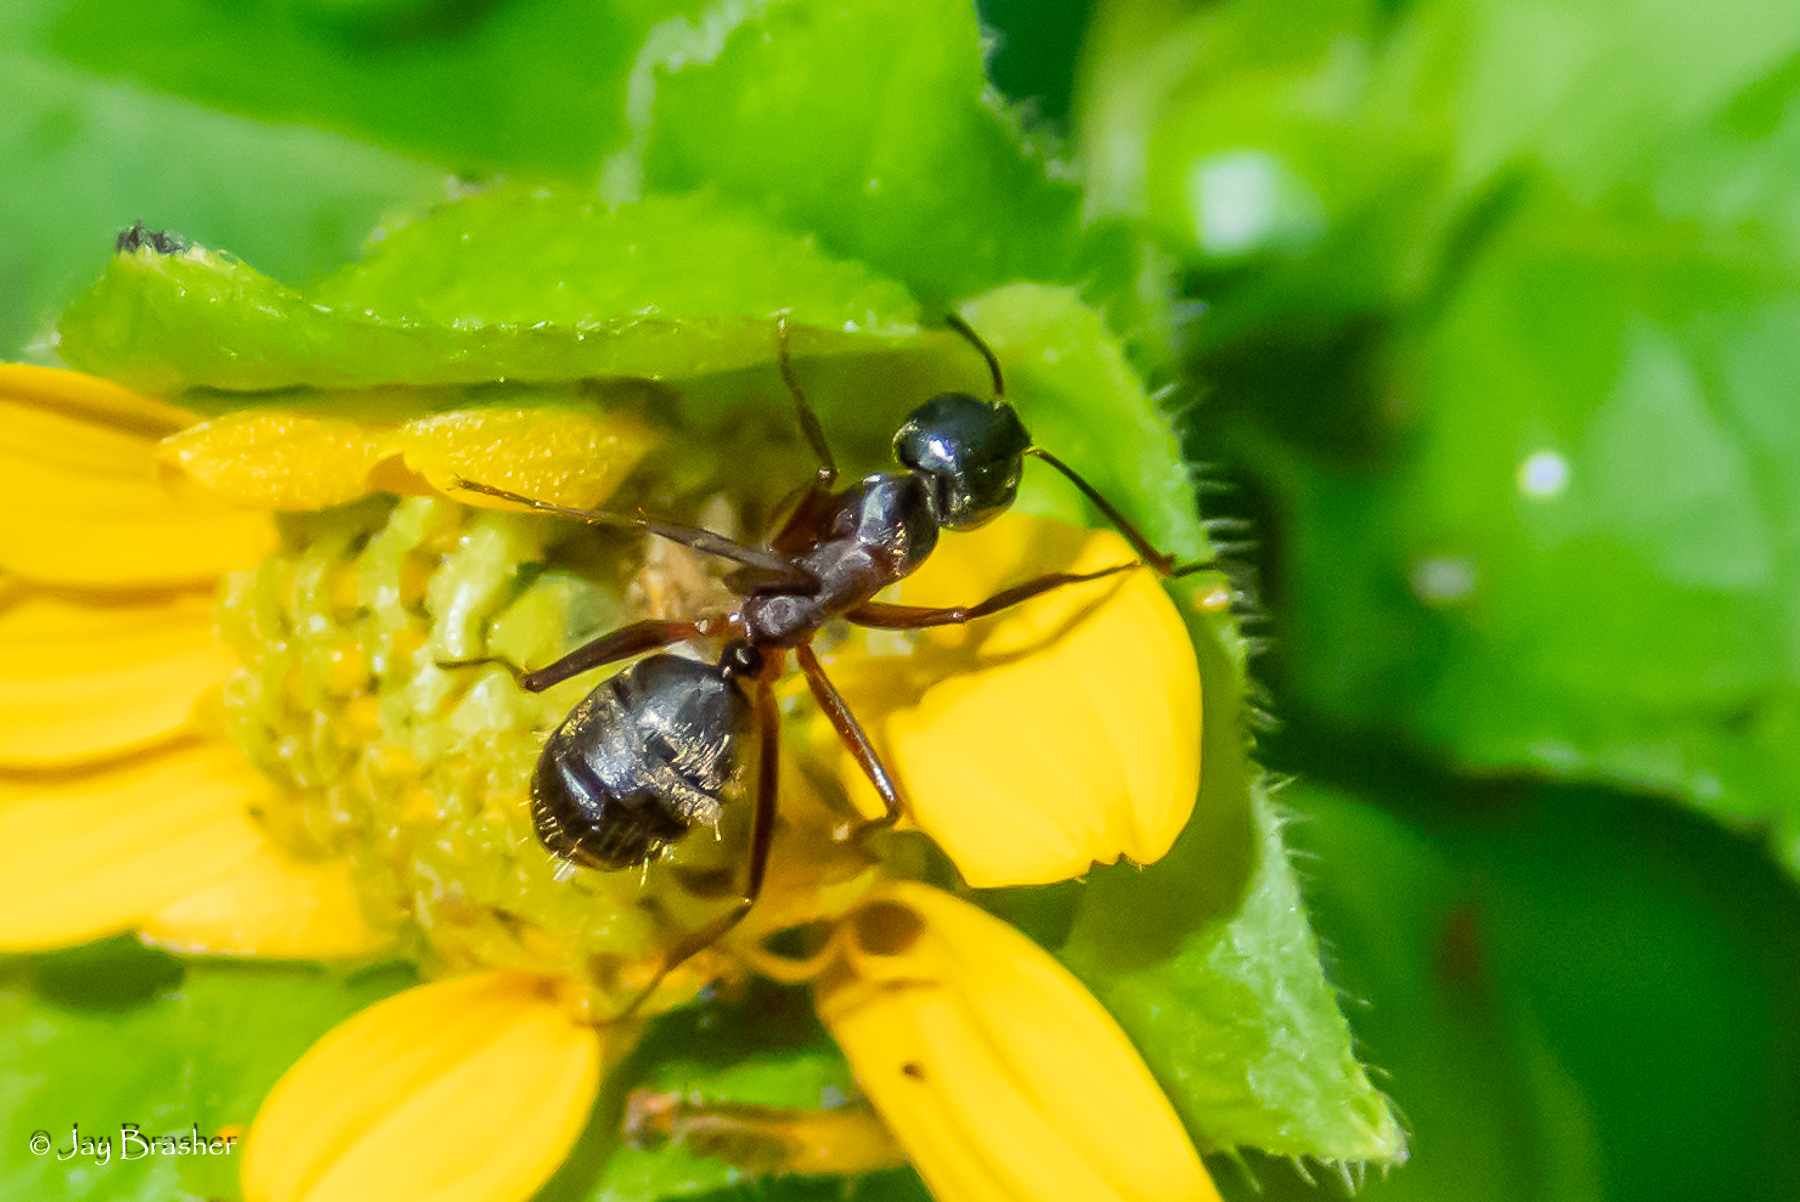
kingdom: Animalia
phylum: Arthropoda
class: Insecta
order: Hymenoptera
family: Formicidae
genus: Camponotus
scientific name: Camponotus chromaiodes
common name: Red carpenter ant
